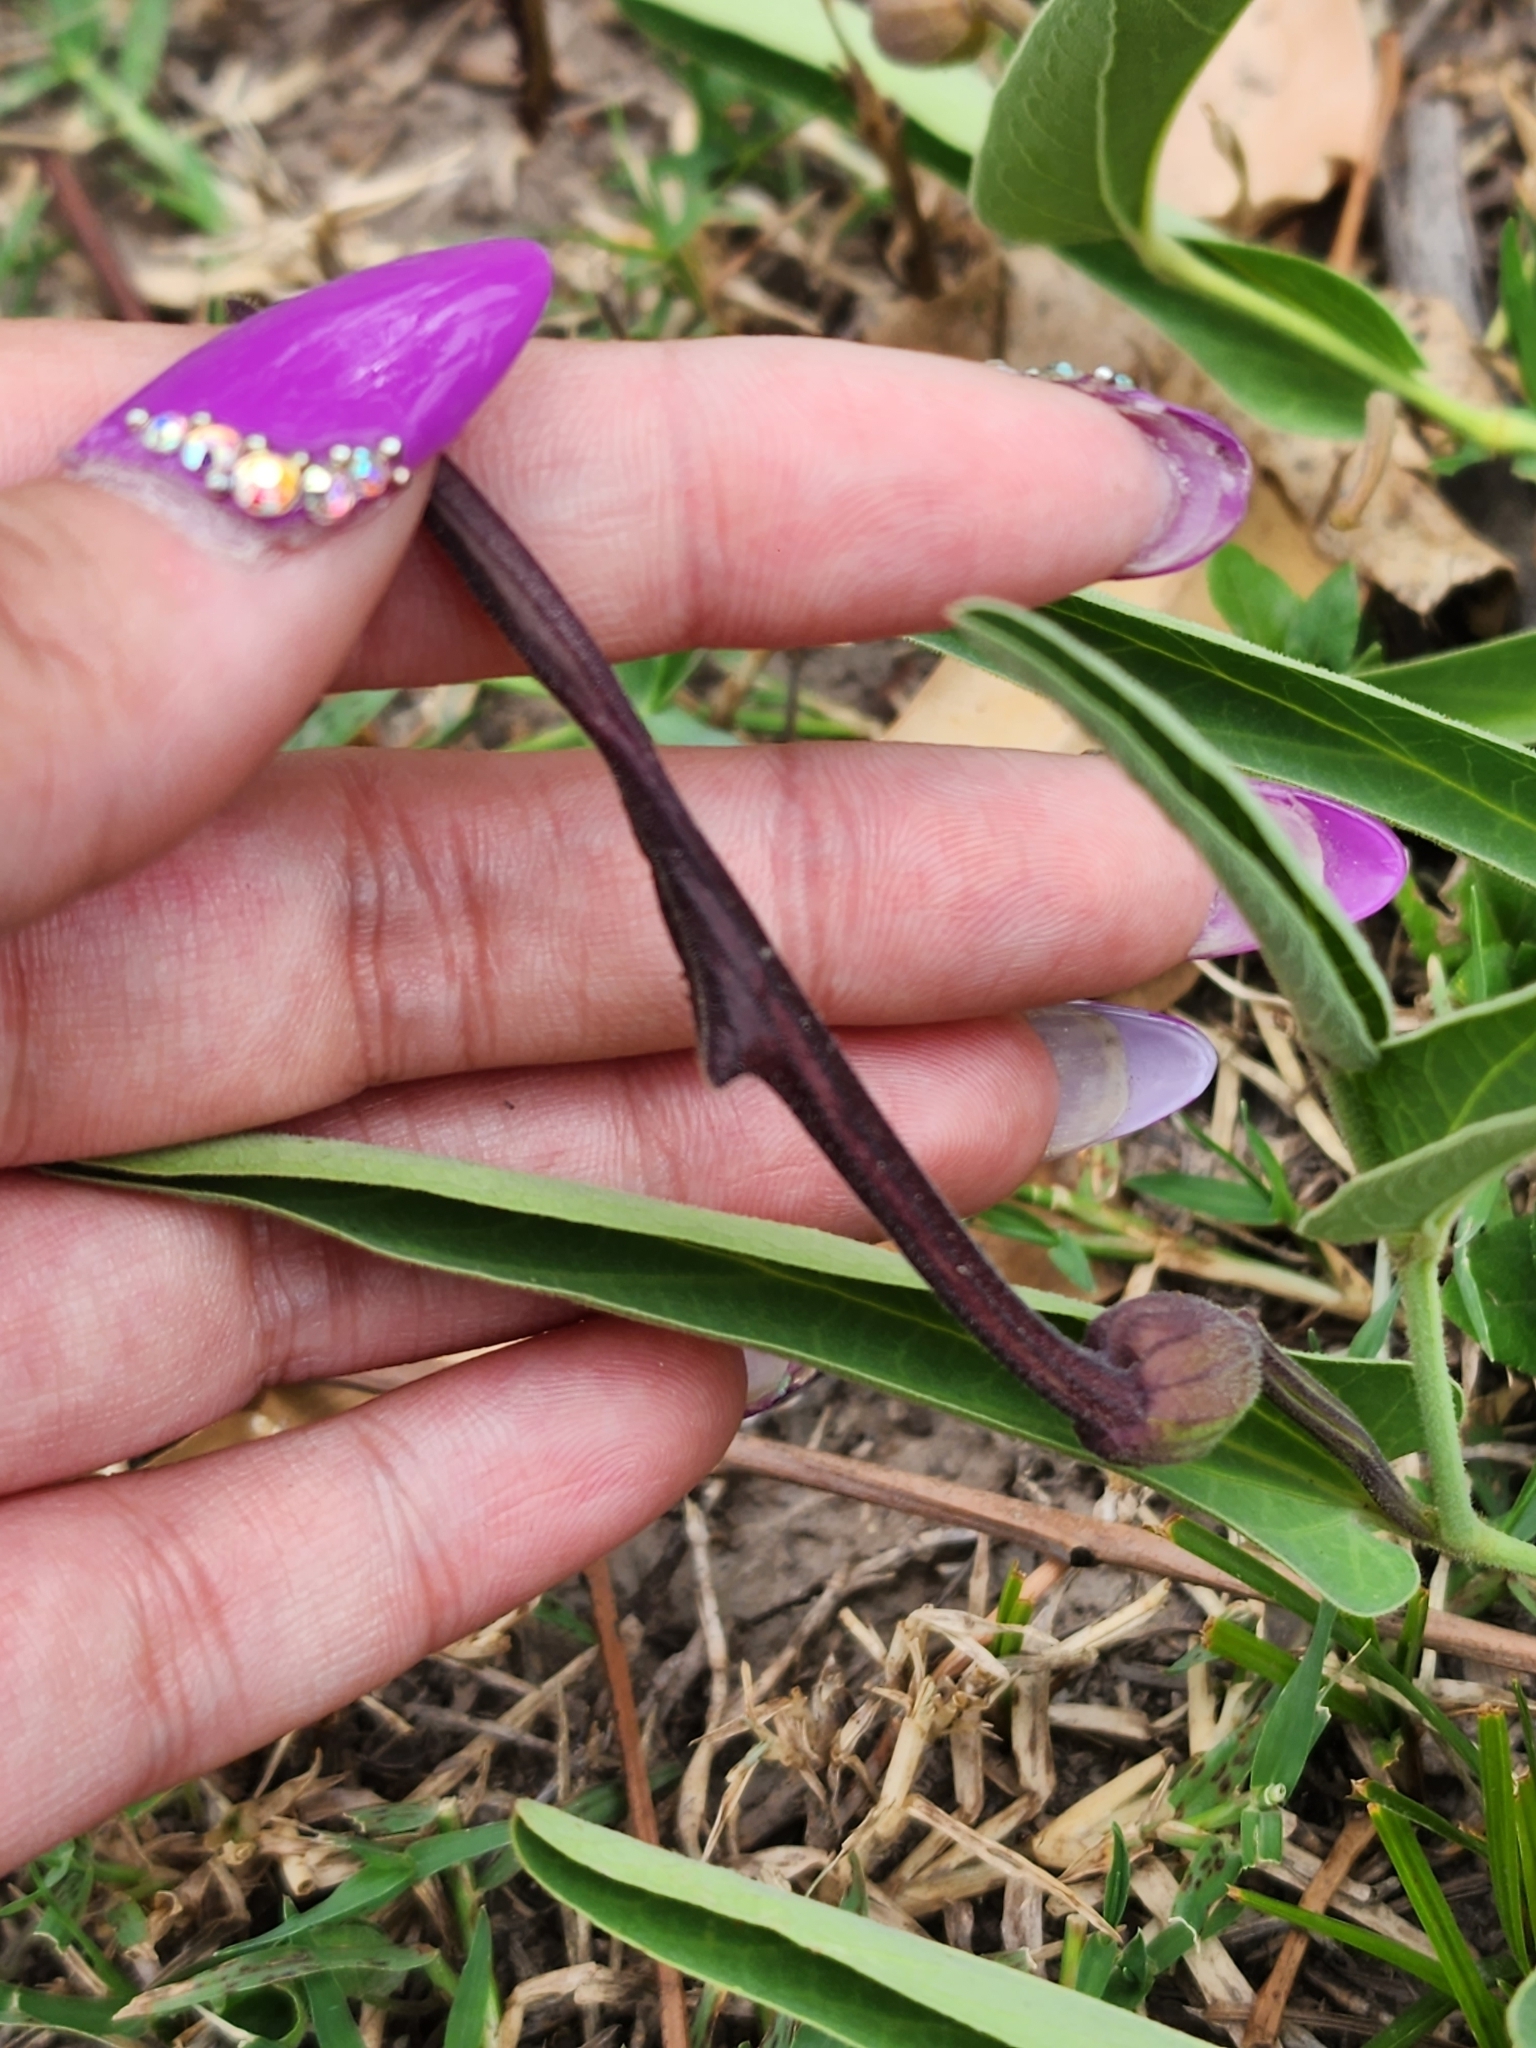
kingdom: Plantae
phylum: Tracheophyta
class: Magnoliopsida
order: Piperales
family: Aristolochiaceae
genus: Aristolochia
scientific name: Aristolochia lingua
